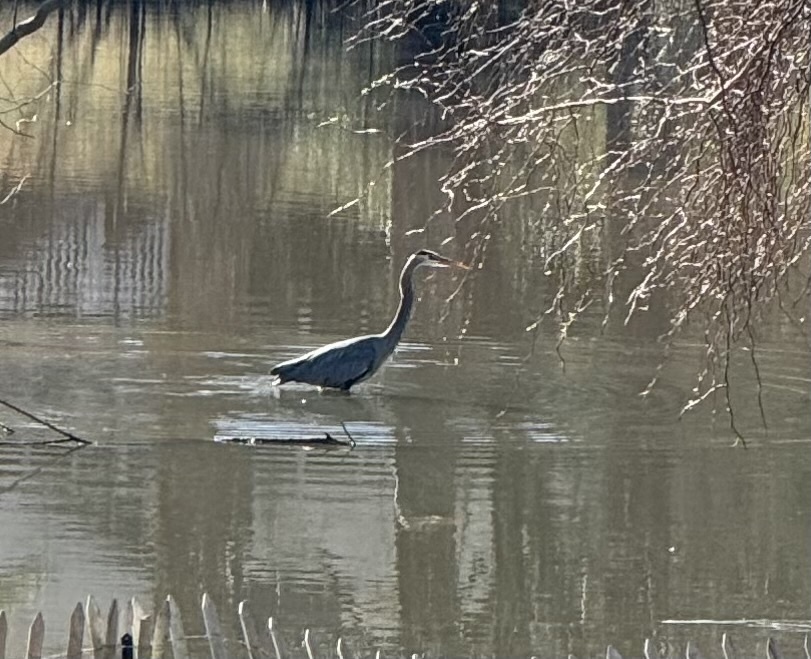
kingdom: Animalia
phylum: Chordata
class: Aves
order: Pelecaniformes
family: Ardeidae
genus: Ardea
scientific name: Ardea herodias
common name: Great blue heron
